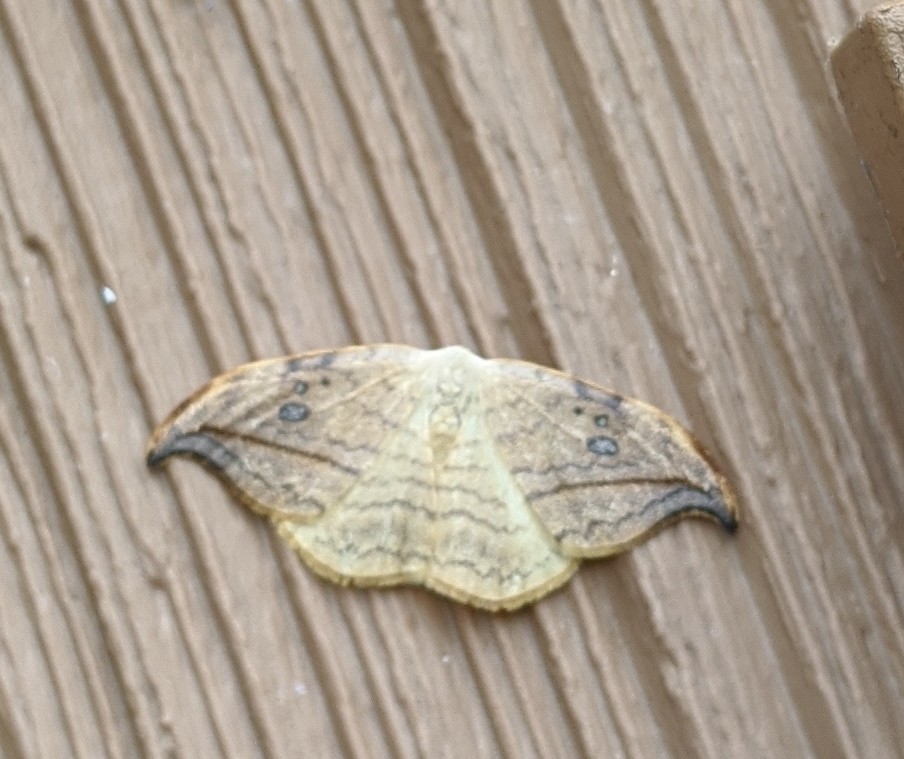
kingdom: Animalia
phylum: Arthropoda
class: Insecta
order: Lepidoptera
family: Drepanidae
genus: Drepana
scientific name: Drepana arcuata
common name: Arched hooktip moth
